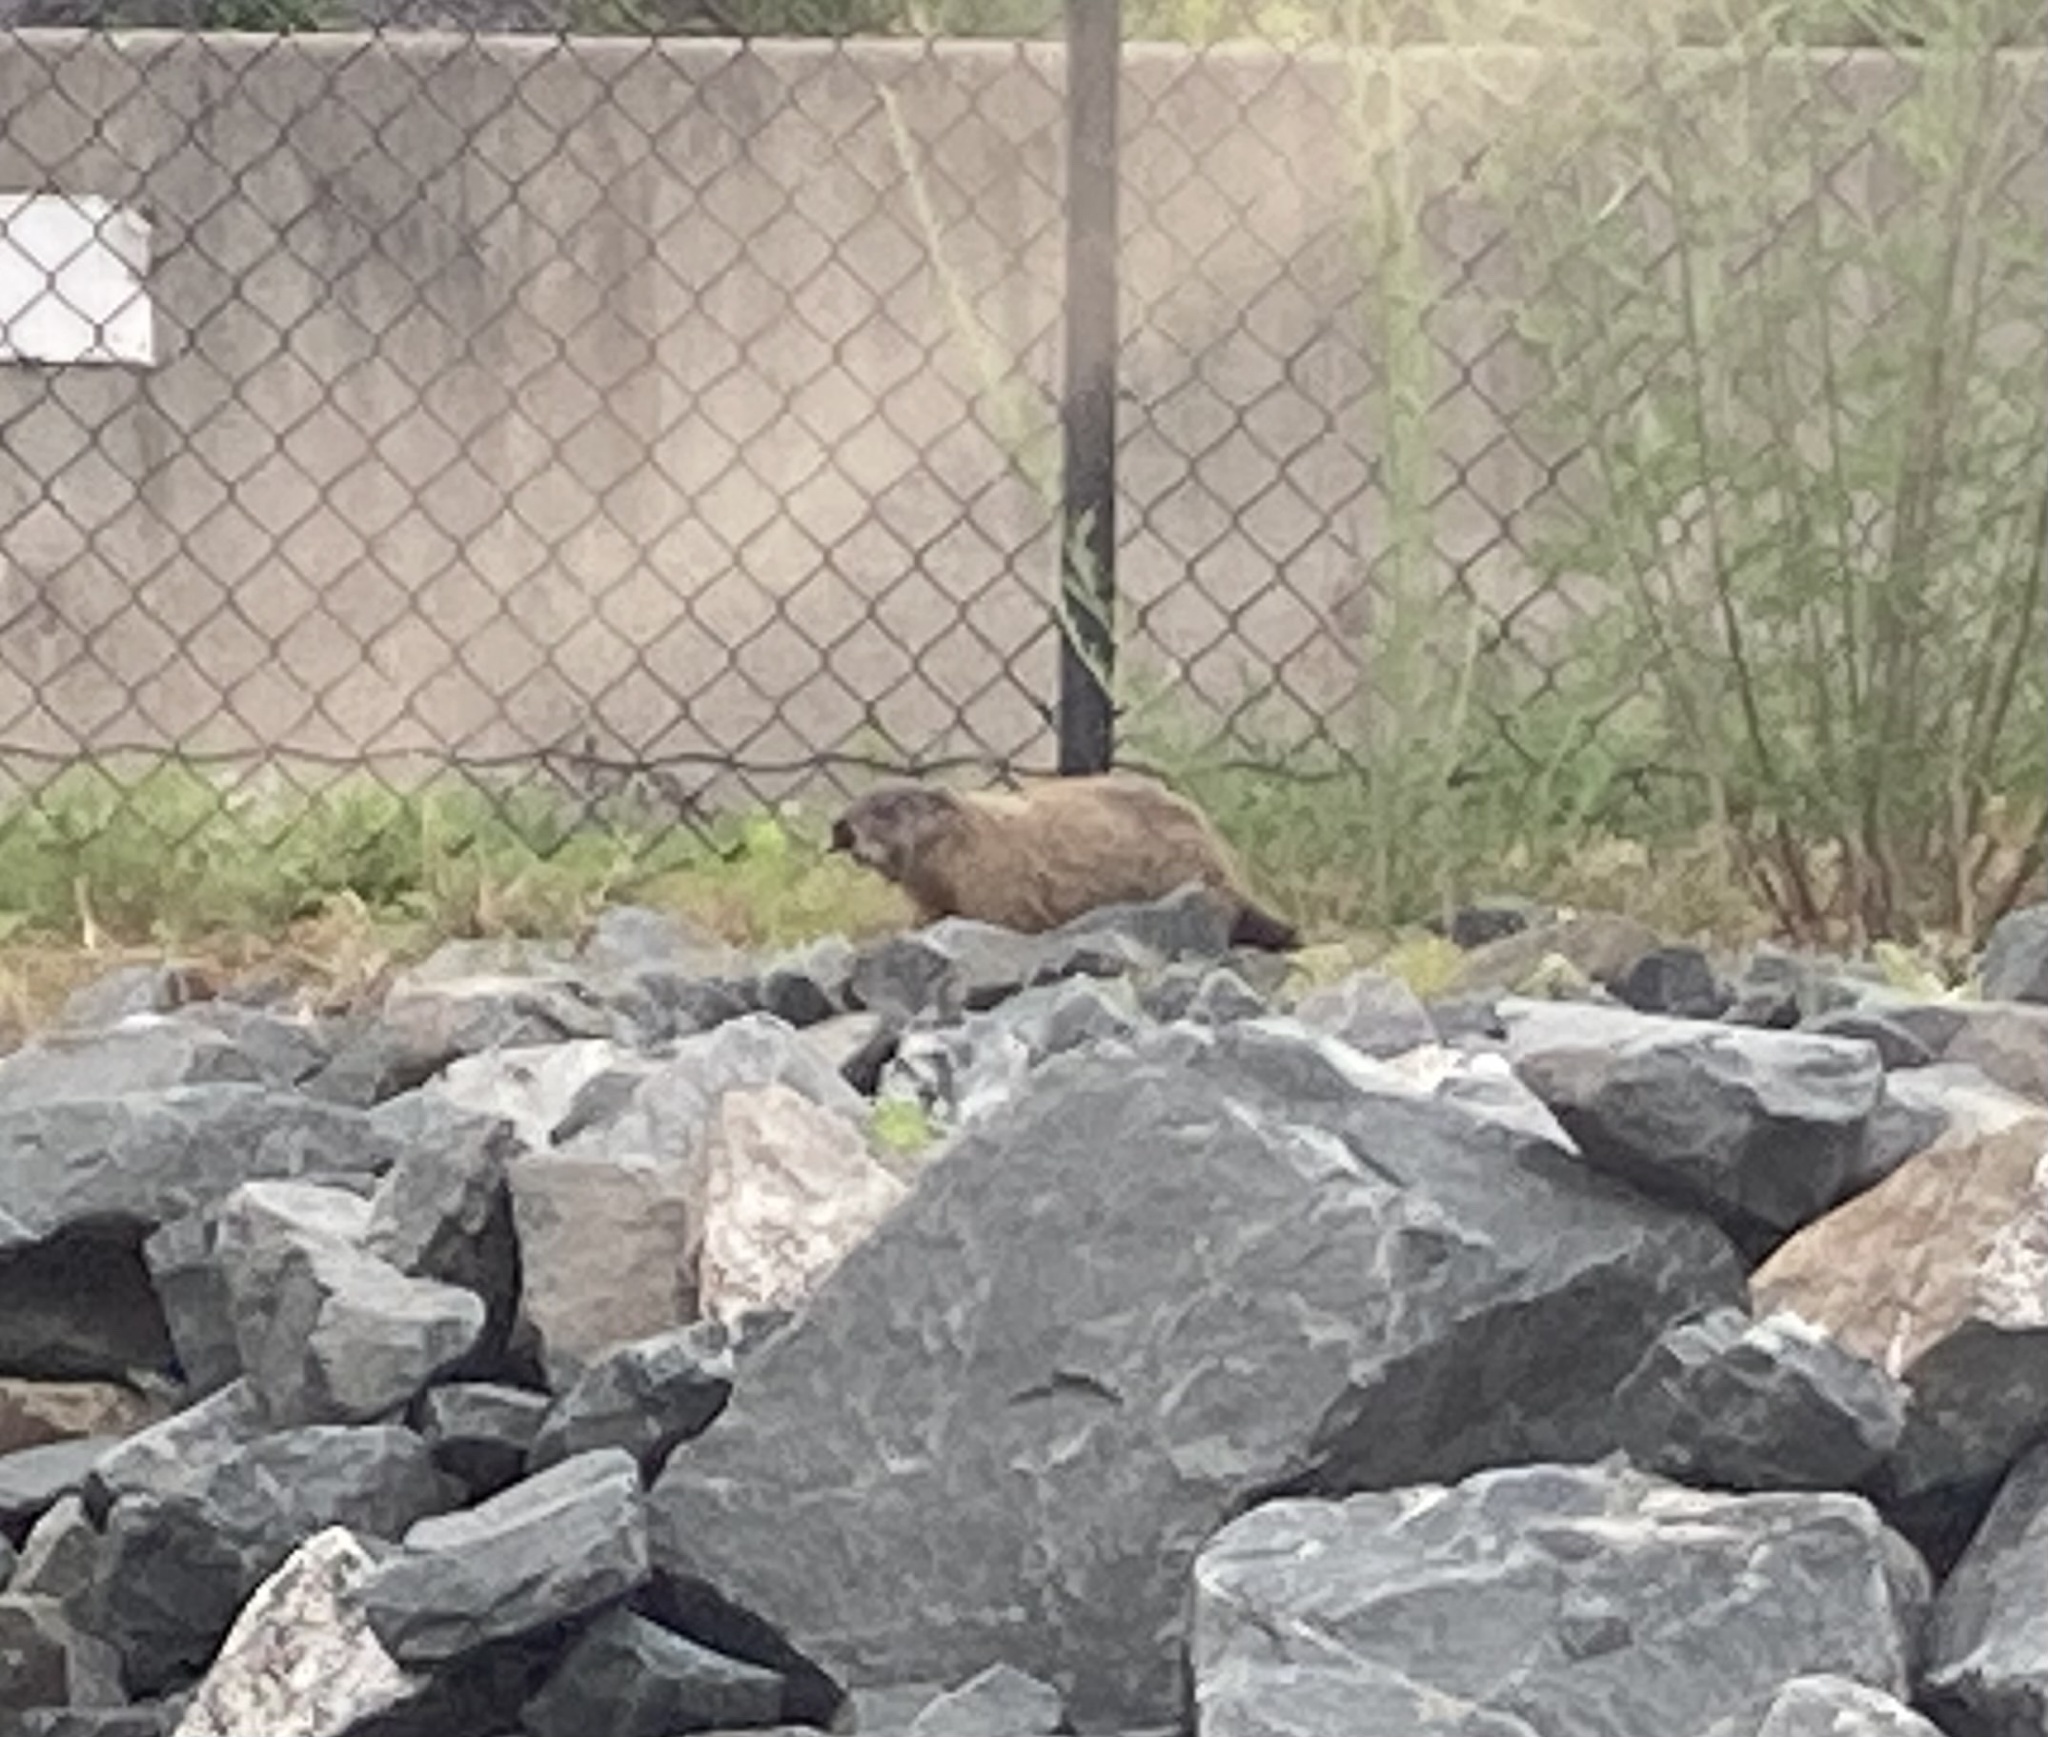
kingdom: Animalia
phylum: Chordata
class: Mammalia
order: Rodentia
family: Sciuridae
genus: Marmota
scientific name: Marmota monax
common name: Groundhog
